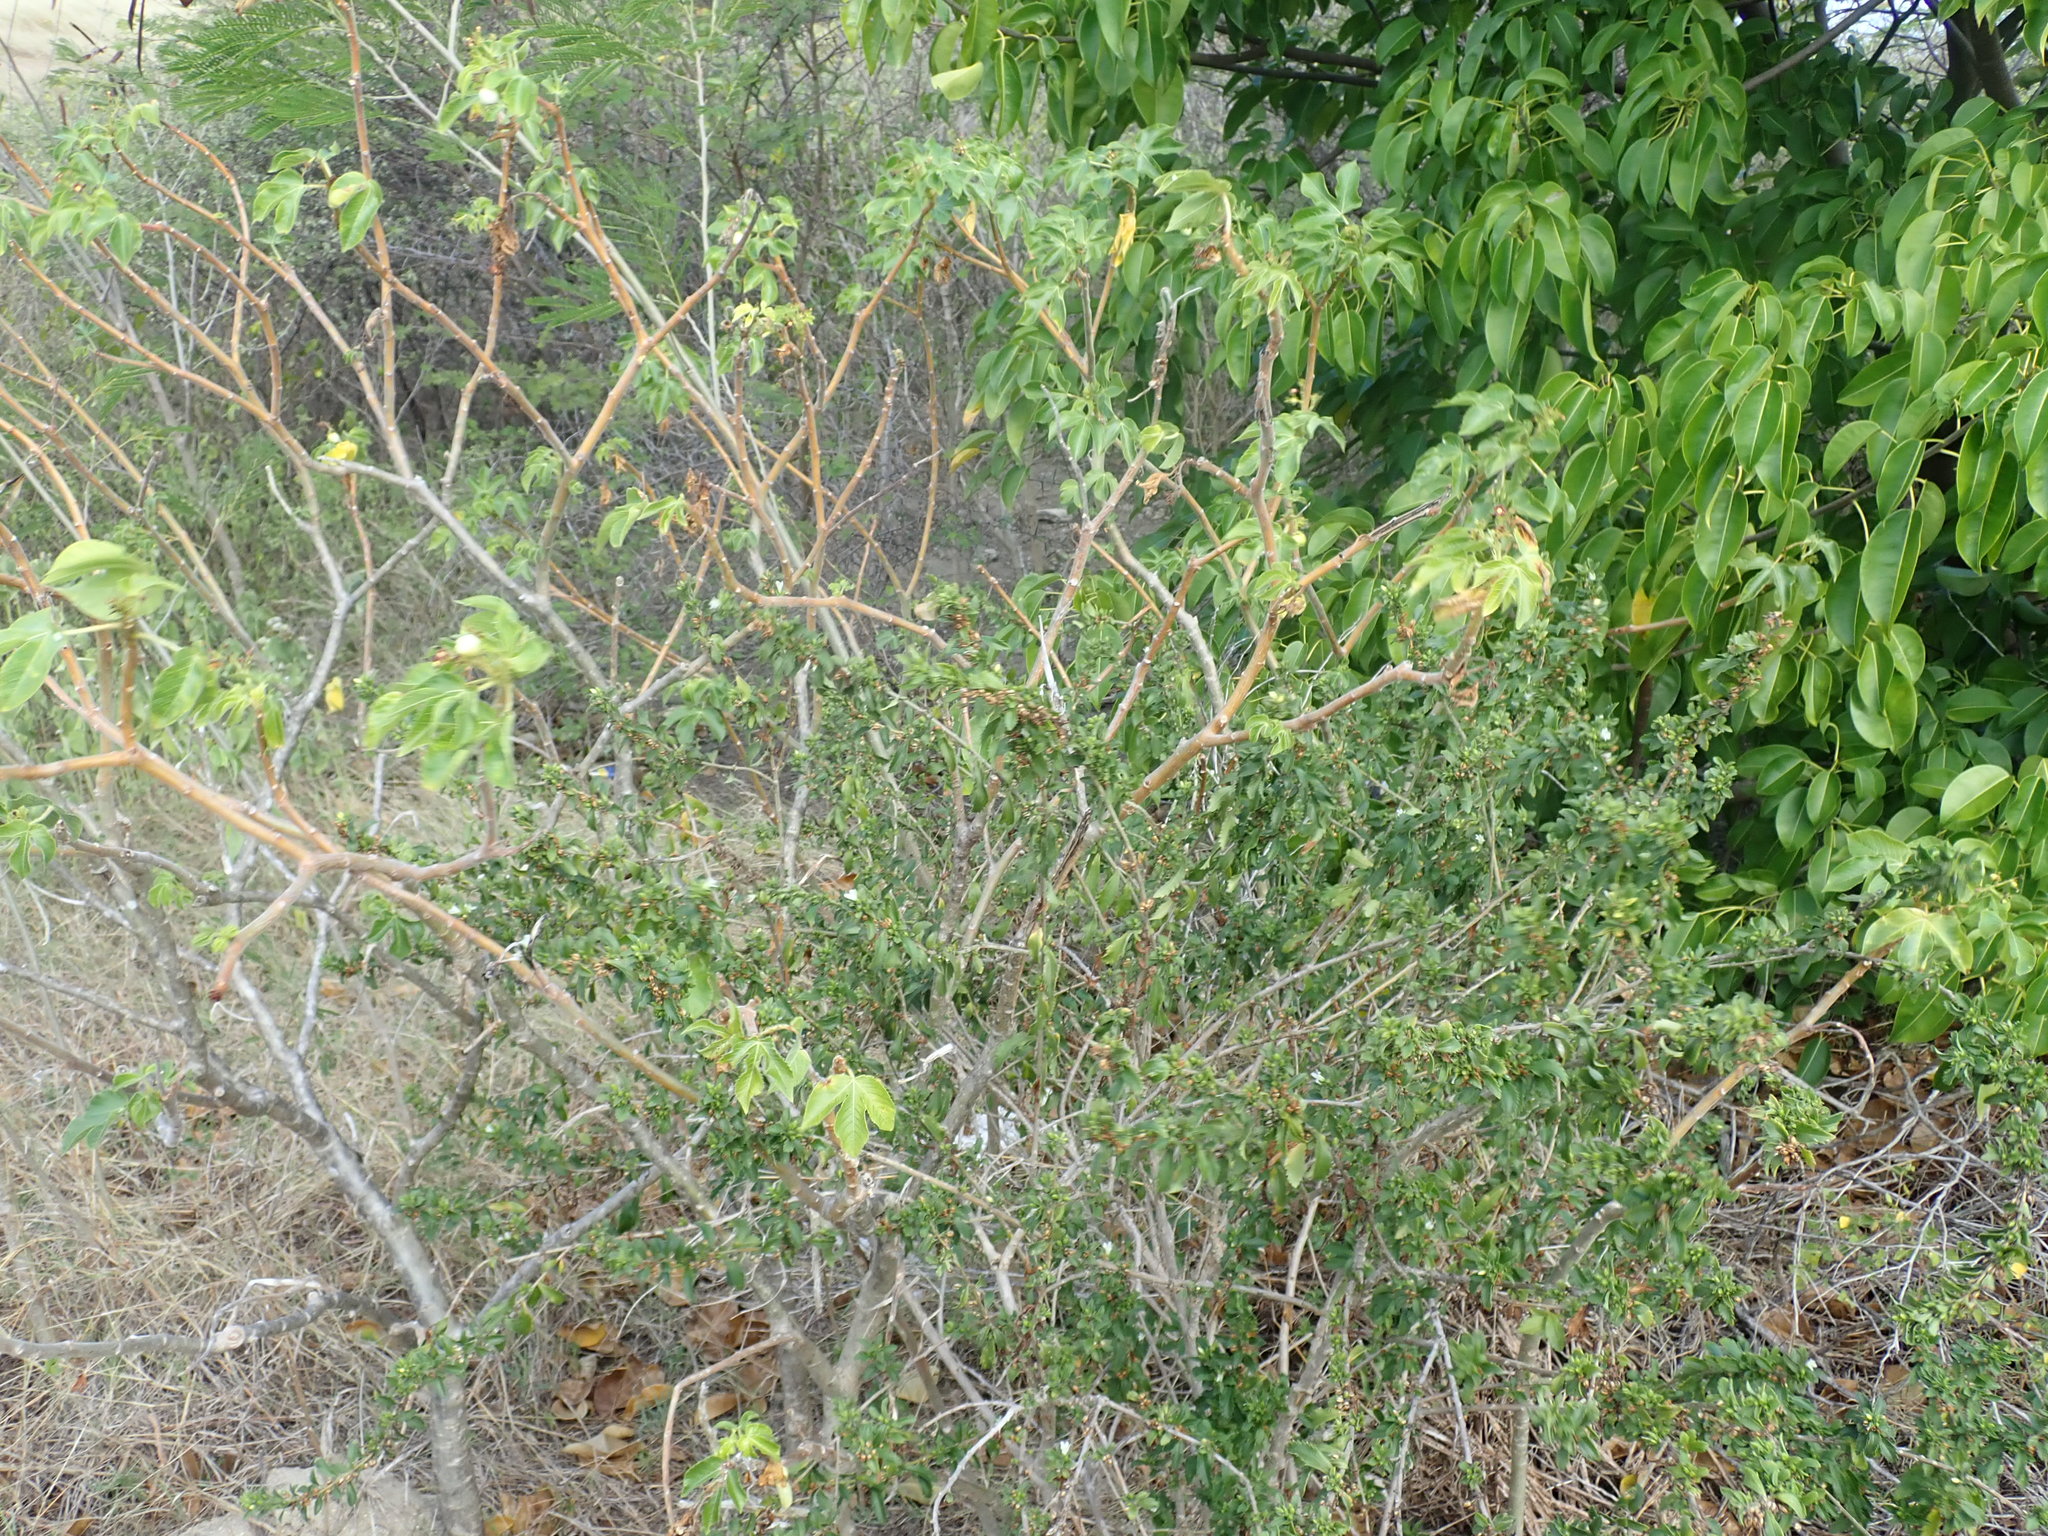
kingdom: Plantae
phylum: Tracheophyta
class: Magnoliopsida
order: Lamiales
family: Scrophulariaceae
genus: Capraria
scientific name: Capraria biflora
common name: Goatweed
